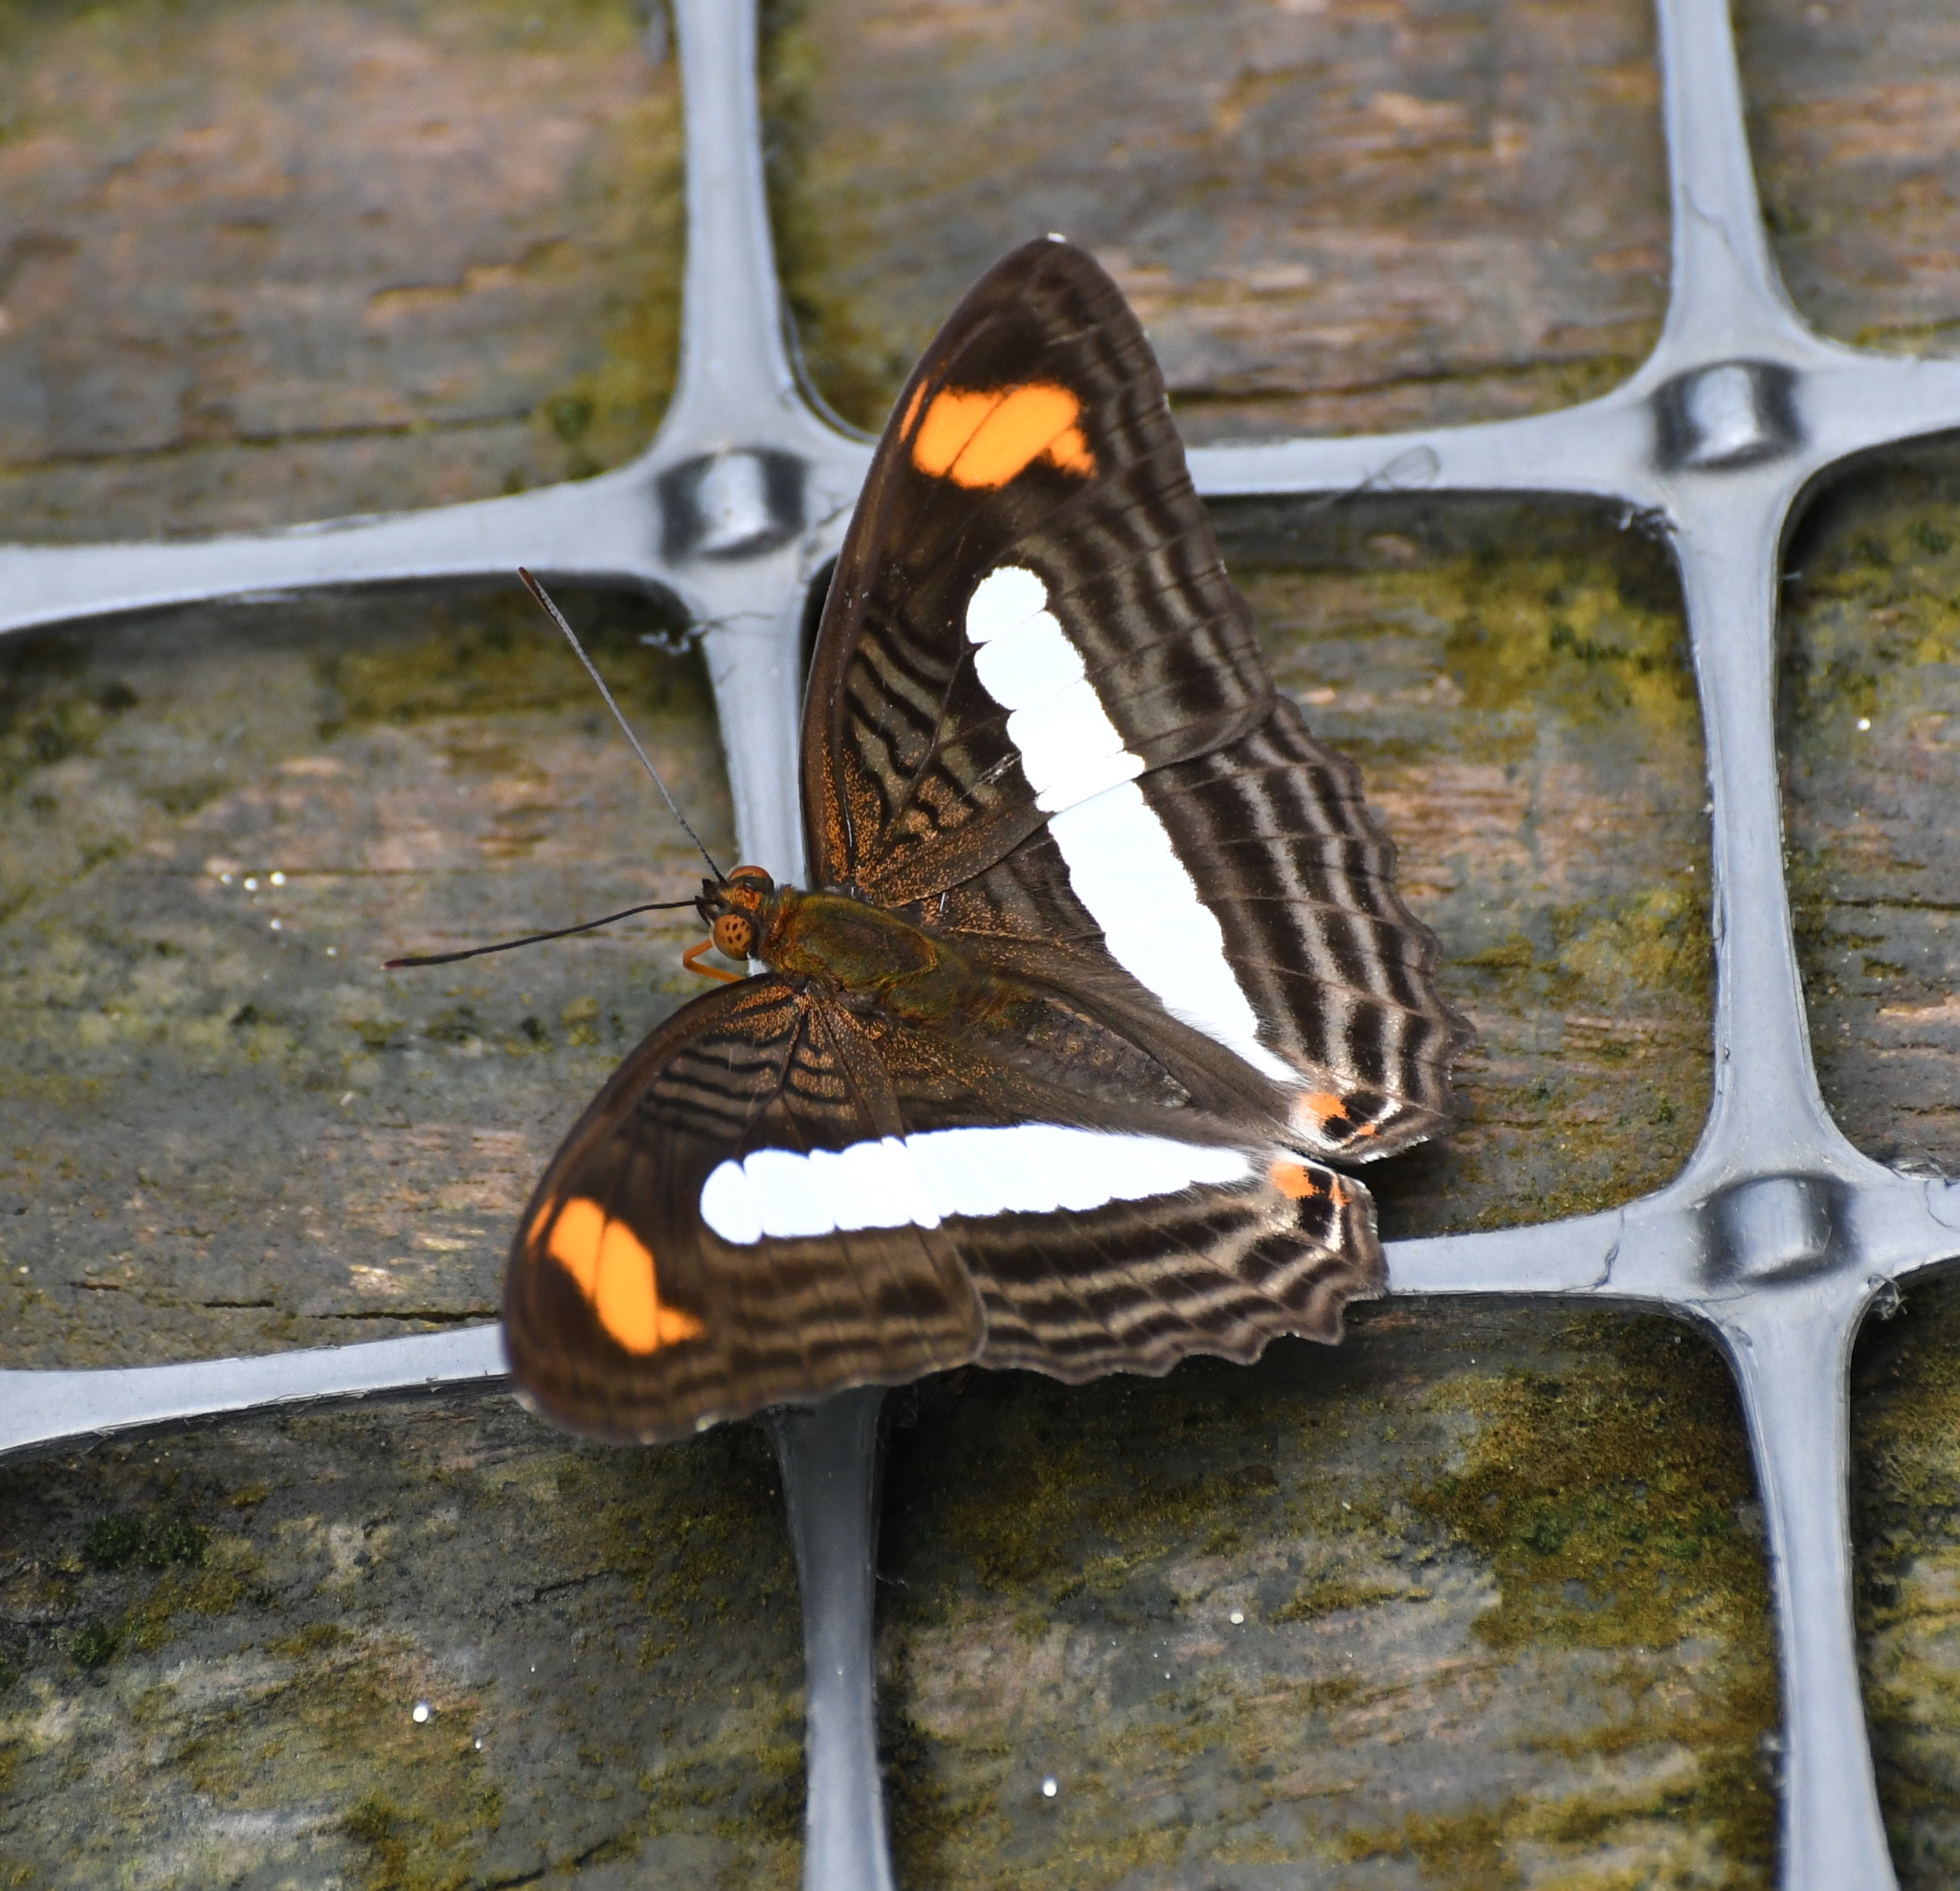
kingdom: Animalia
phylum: Arthropoda
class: Insecta
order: Lepidoptera
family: Nymphalidae
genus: Limenitis
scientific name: Limenitis Adelpha iphiclus
